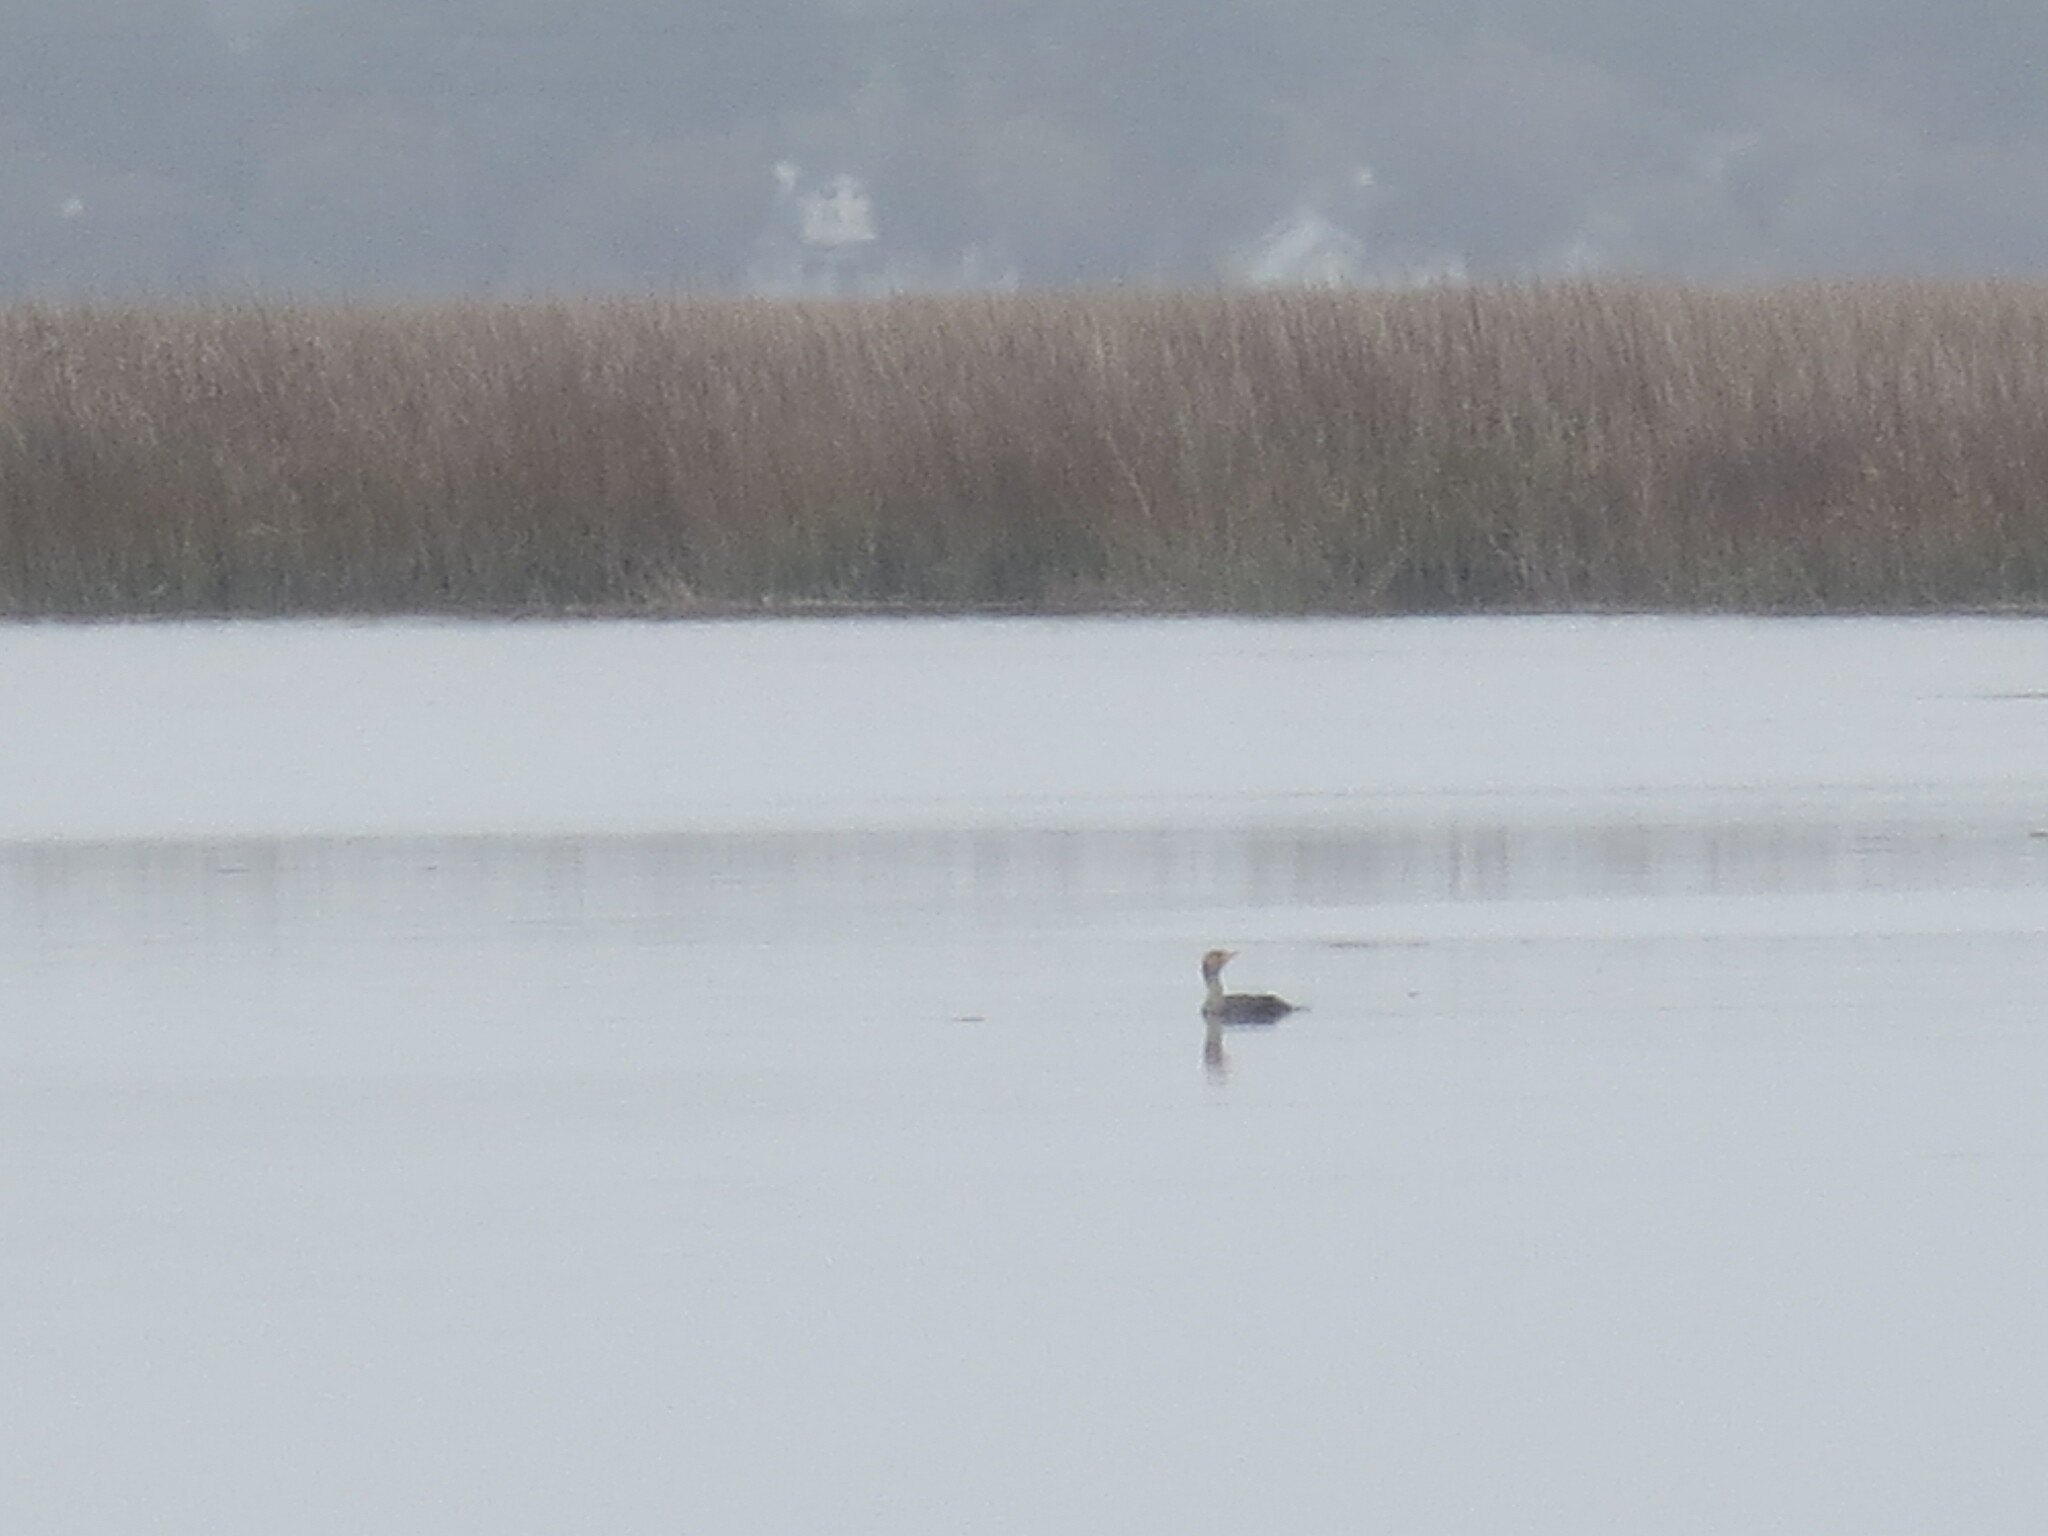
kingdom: Animalia
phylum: Chordata
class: Aves
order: Suliformes
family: Phalacrocoracidae
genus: Phalacrocorax
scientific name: Phalacrocorax auritus
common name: Double-crested cormorant
